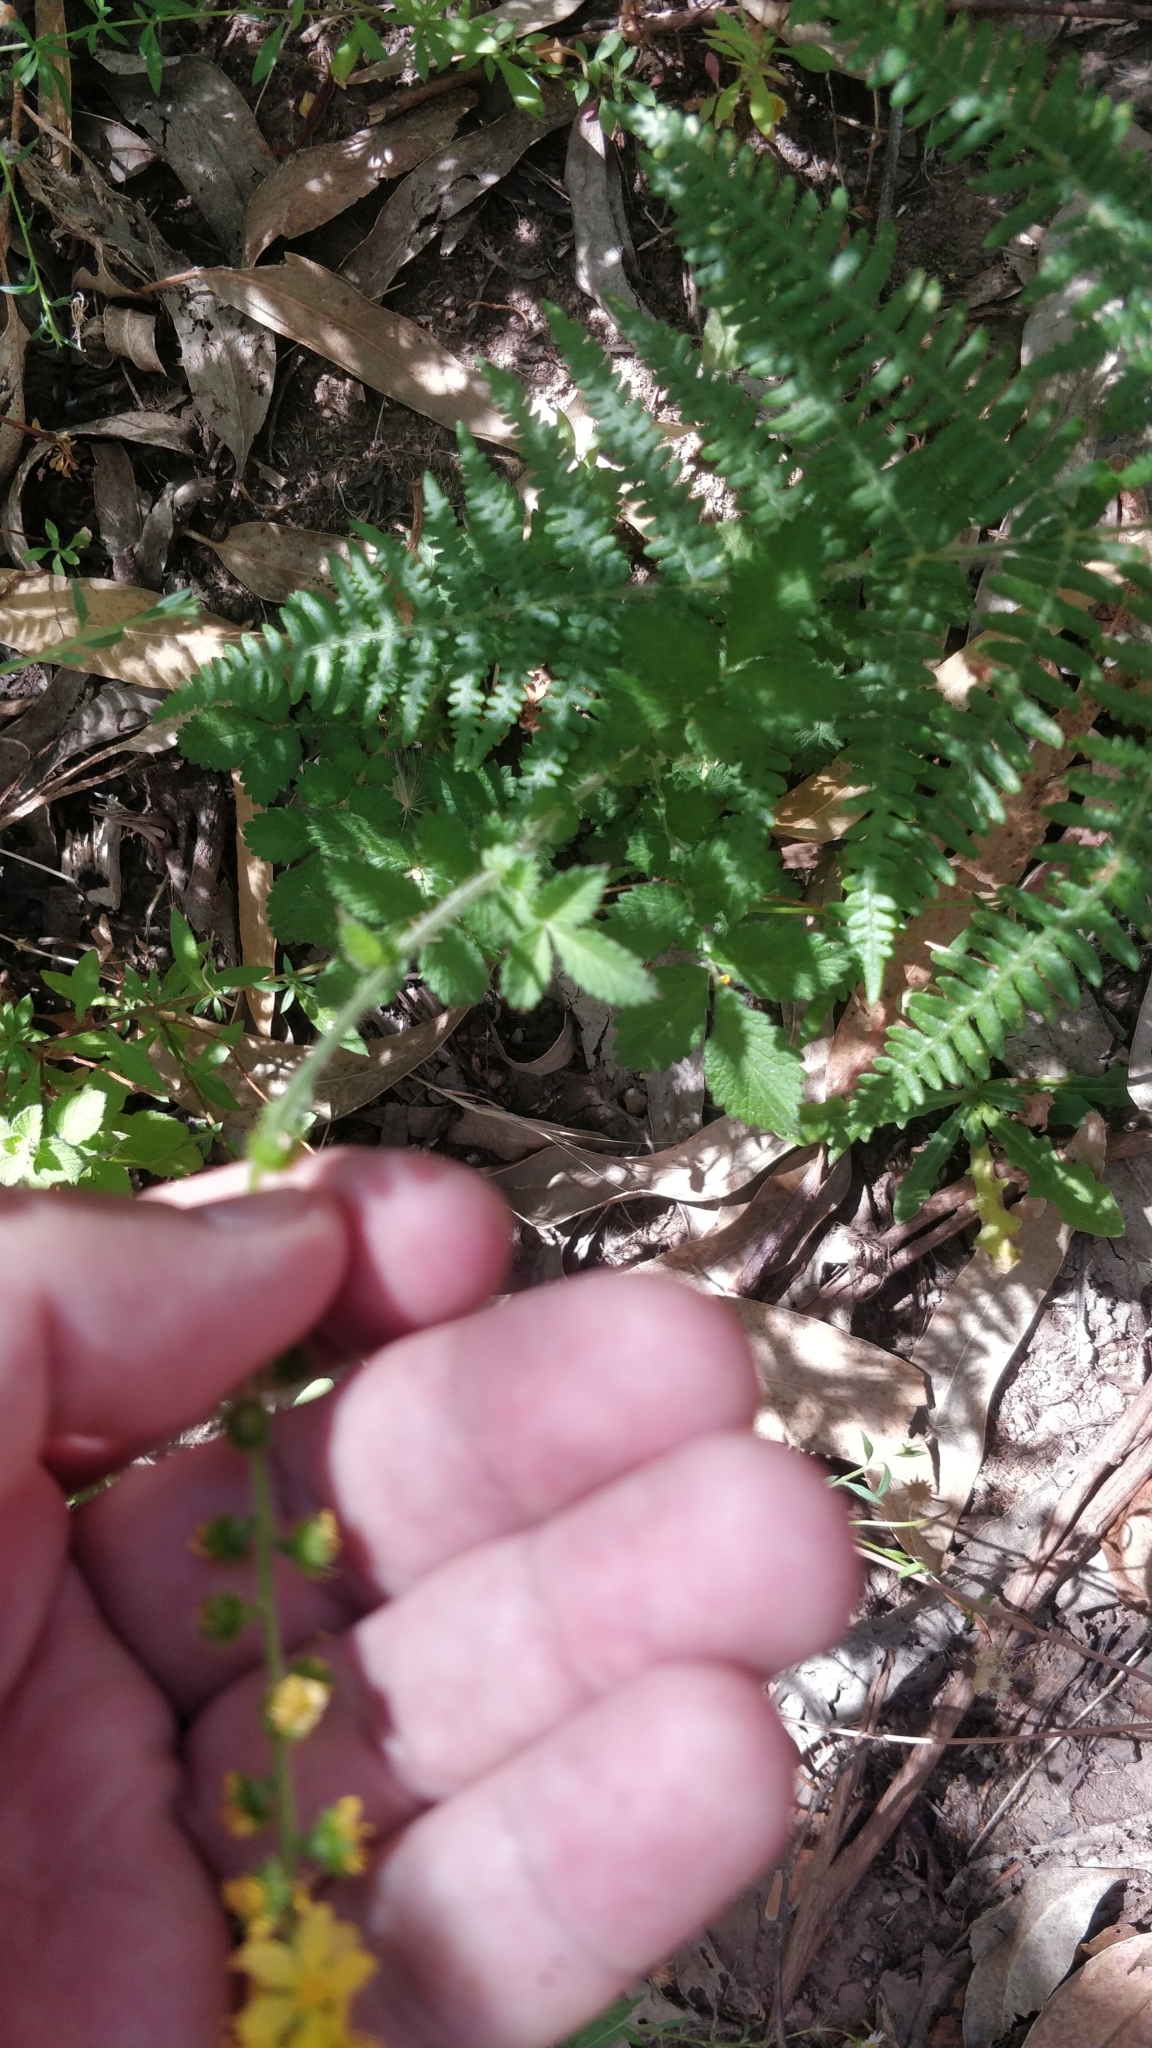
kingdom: Plantae
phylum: Tracheophyta
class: Magnoliopsida
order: Rosales
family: Rosaceae
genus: Agrimonia
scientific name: Agrimonia eupatoria
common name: Agrimony
